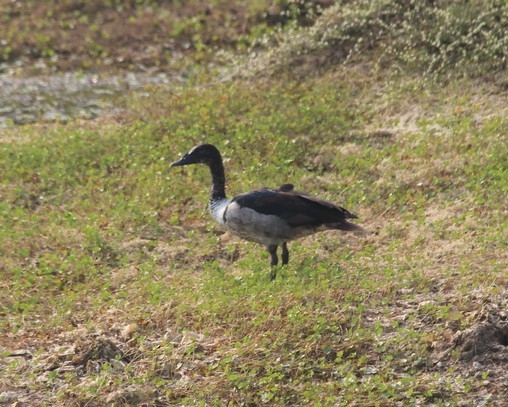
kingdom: Animalia
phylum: Chordata
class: Aves
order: Anseriformes
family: Anatidae
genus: Sarkidiornis
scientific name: Sarkidiornis melanotos
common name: Comb duck
